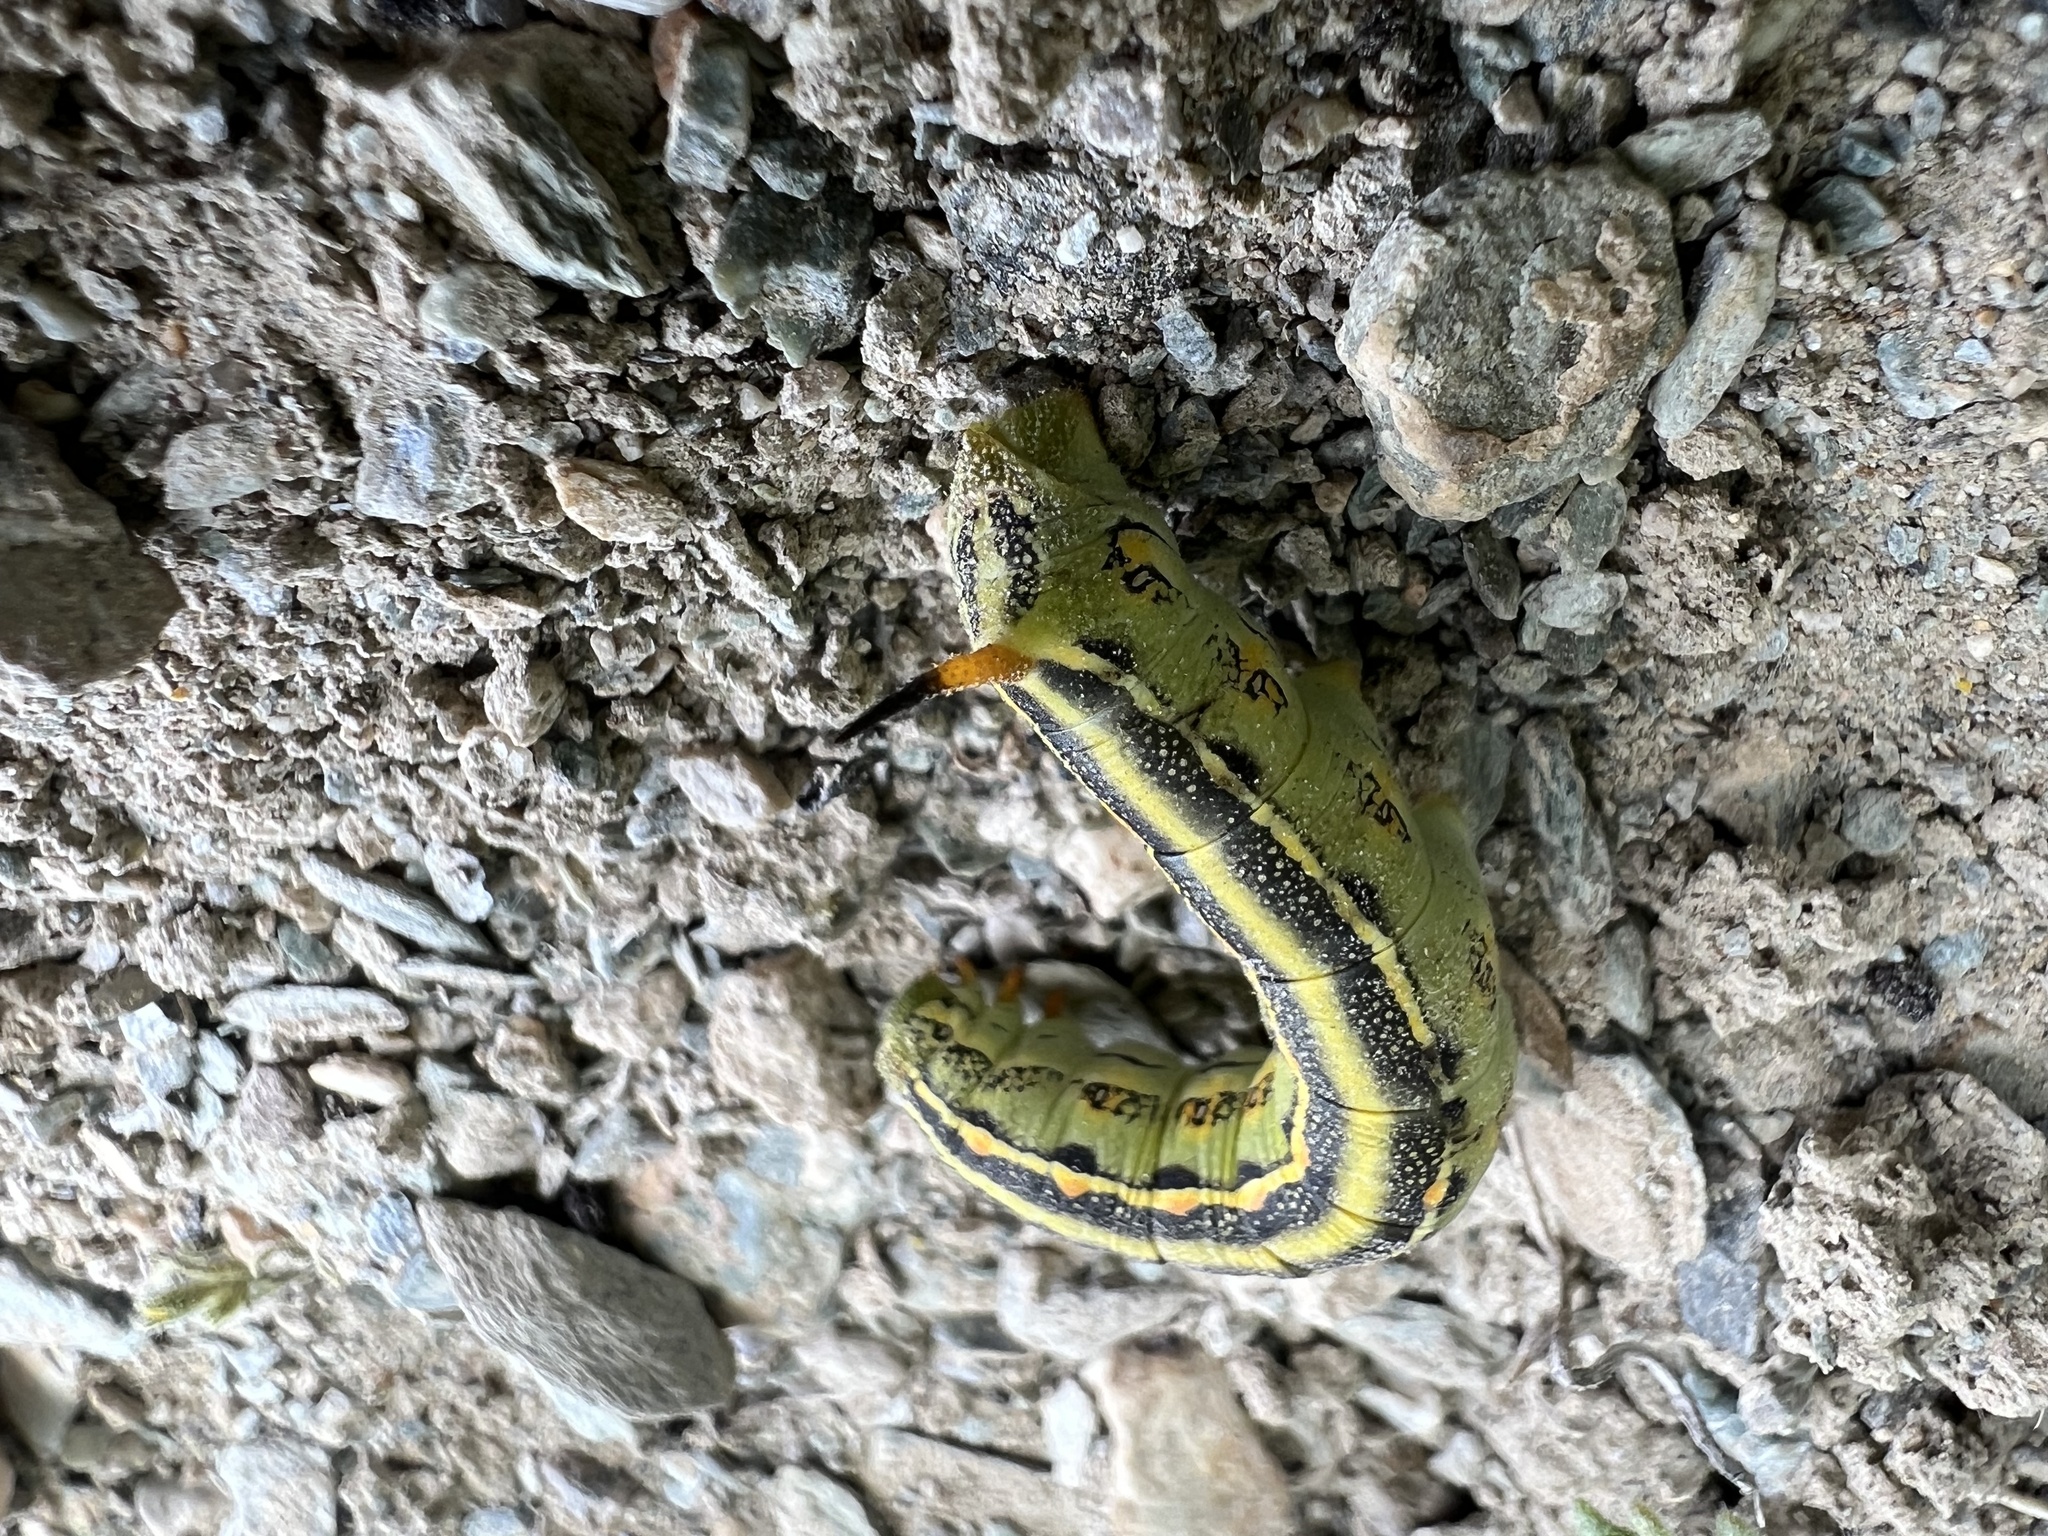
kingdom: Animalia
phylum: Arthropoda
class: Insecta
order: Lepidoptera
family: Sphingidae
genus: Hyles
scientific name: Hyles lineata
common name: White-lined sphinx
